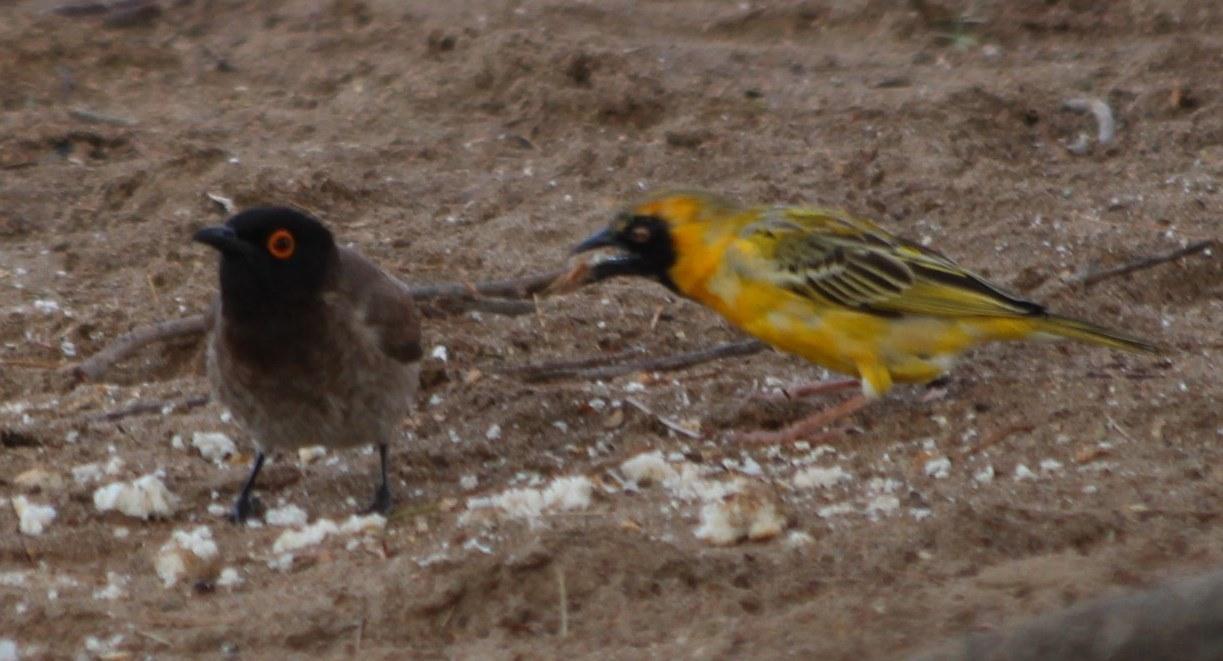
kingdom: Animalia
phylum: Chordata
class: Aves
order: Passeriformes
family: Pycnonotidae
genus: Pycnonotus
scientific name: Pycnonotus nigricans
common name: African red-eyed bulbul
